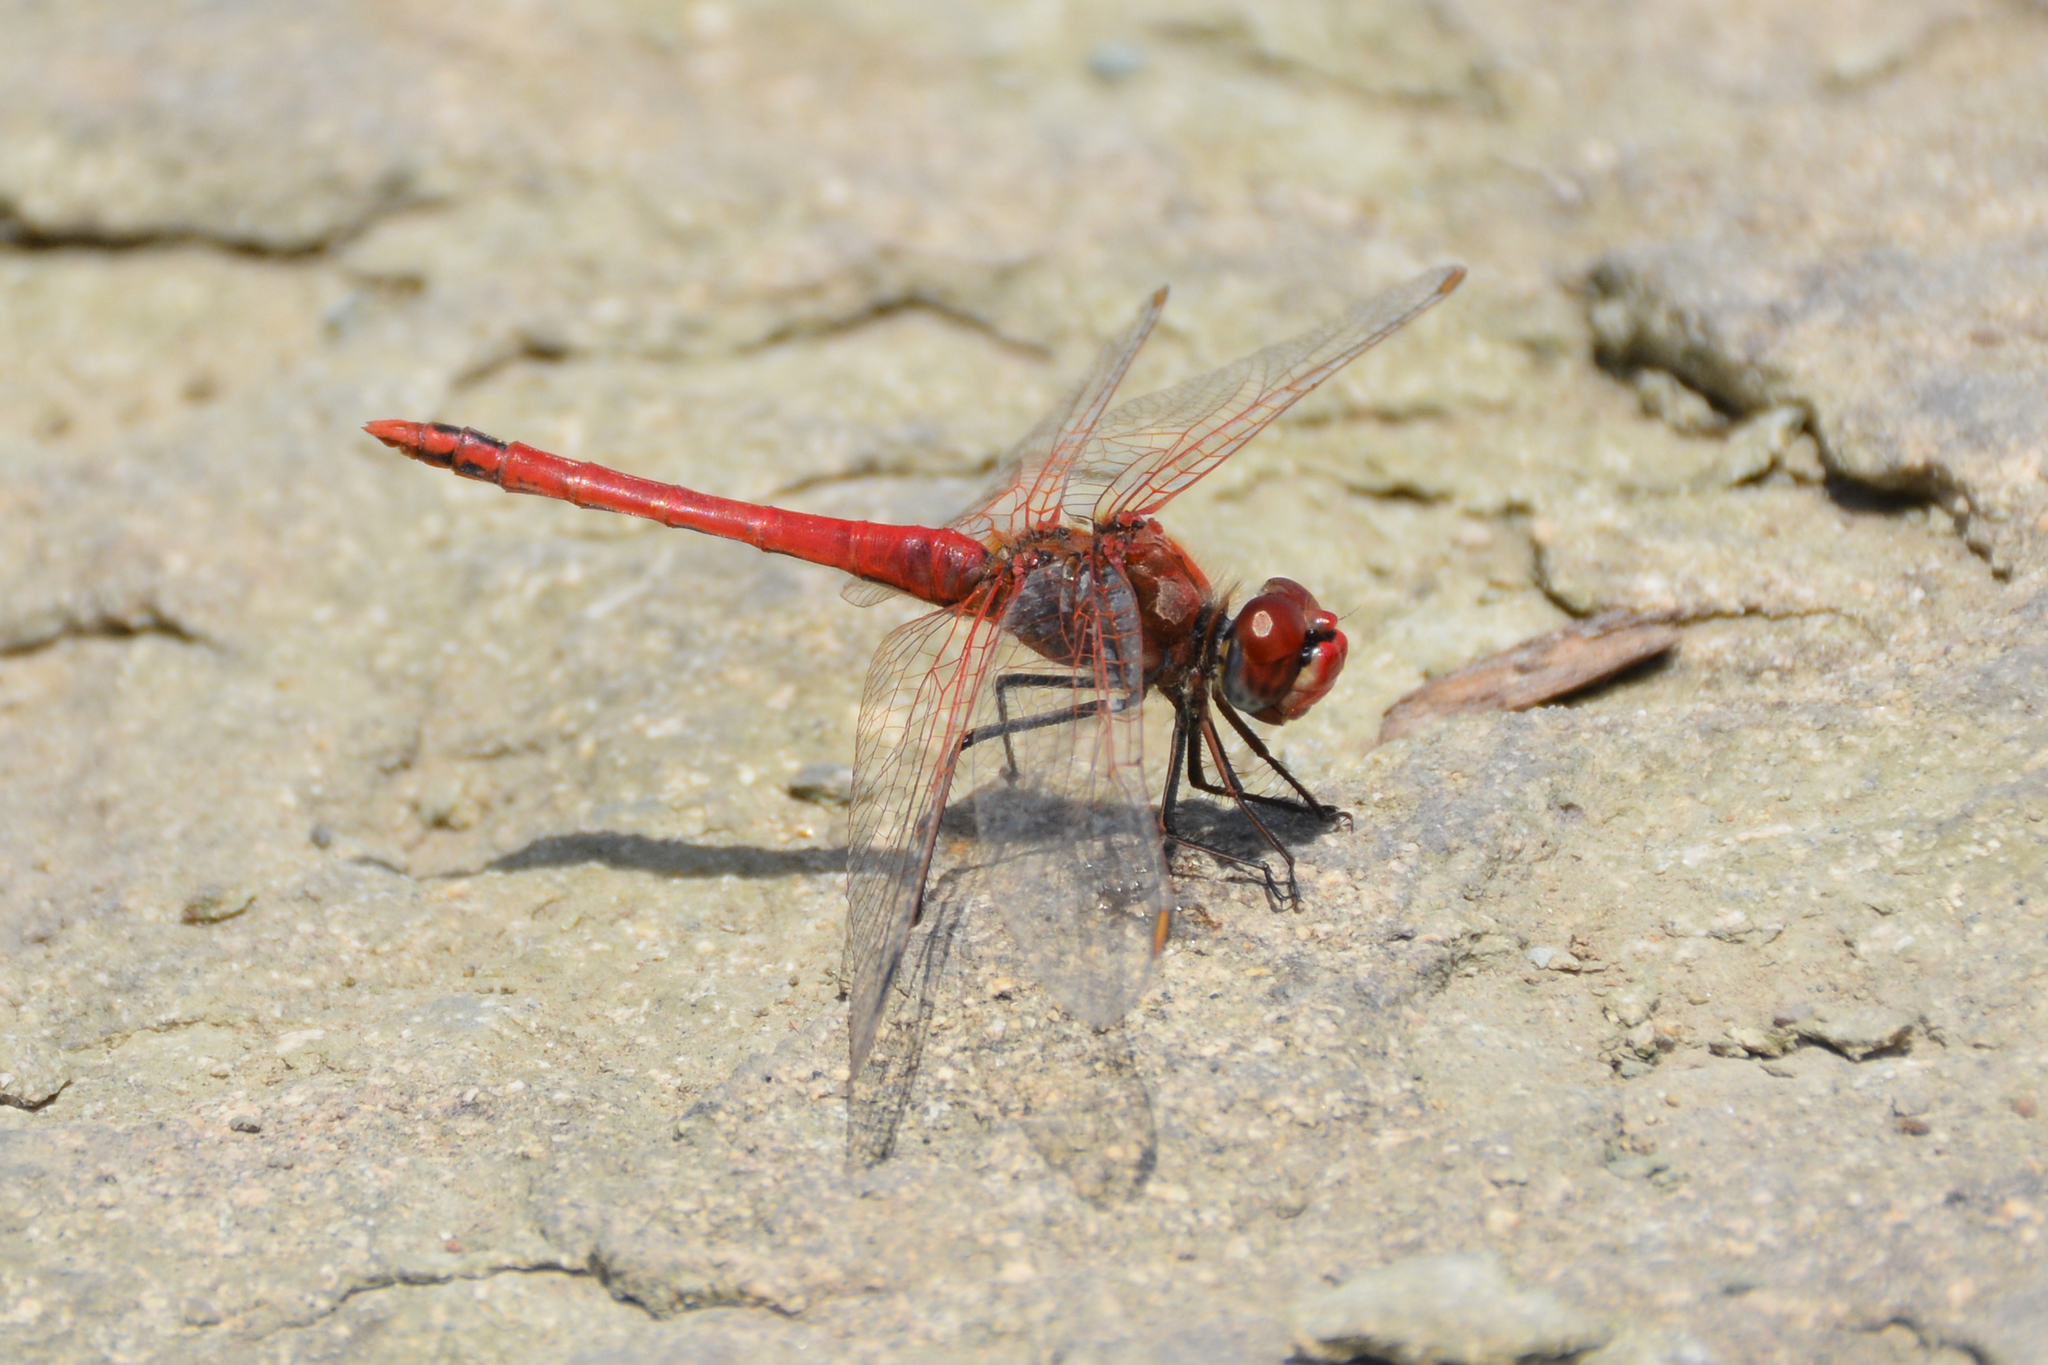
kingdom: Animalia
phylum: Arthropoda
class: Insecta
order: Odonata
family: Libellulidae
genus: Sympetrum
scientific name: Sympetrum fonscolombii
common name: Red-veined darter
